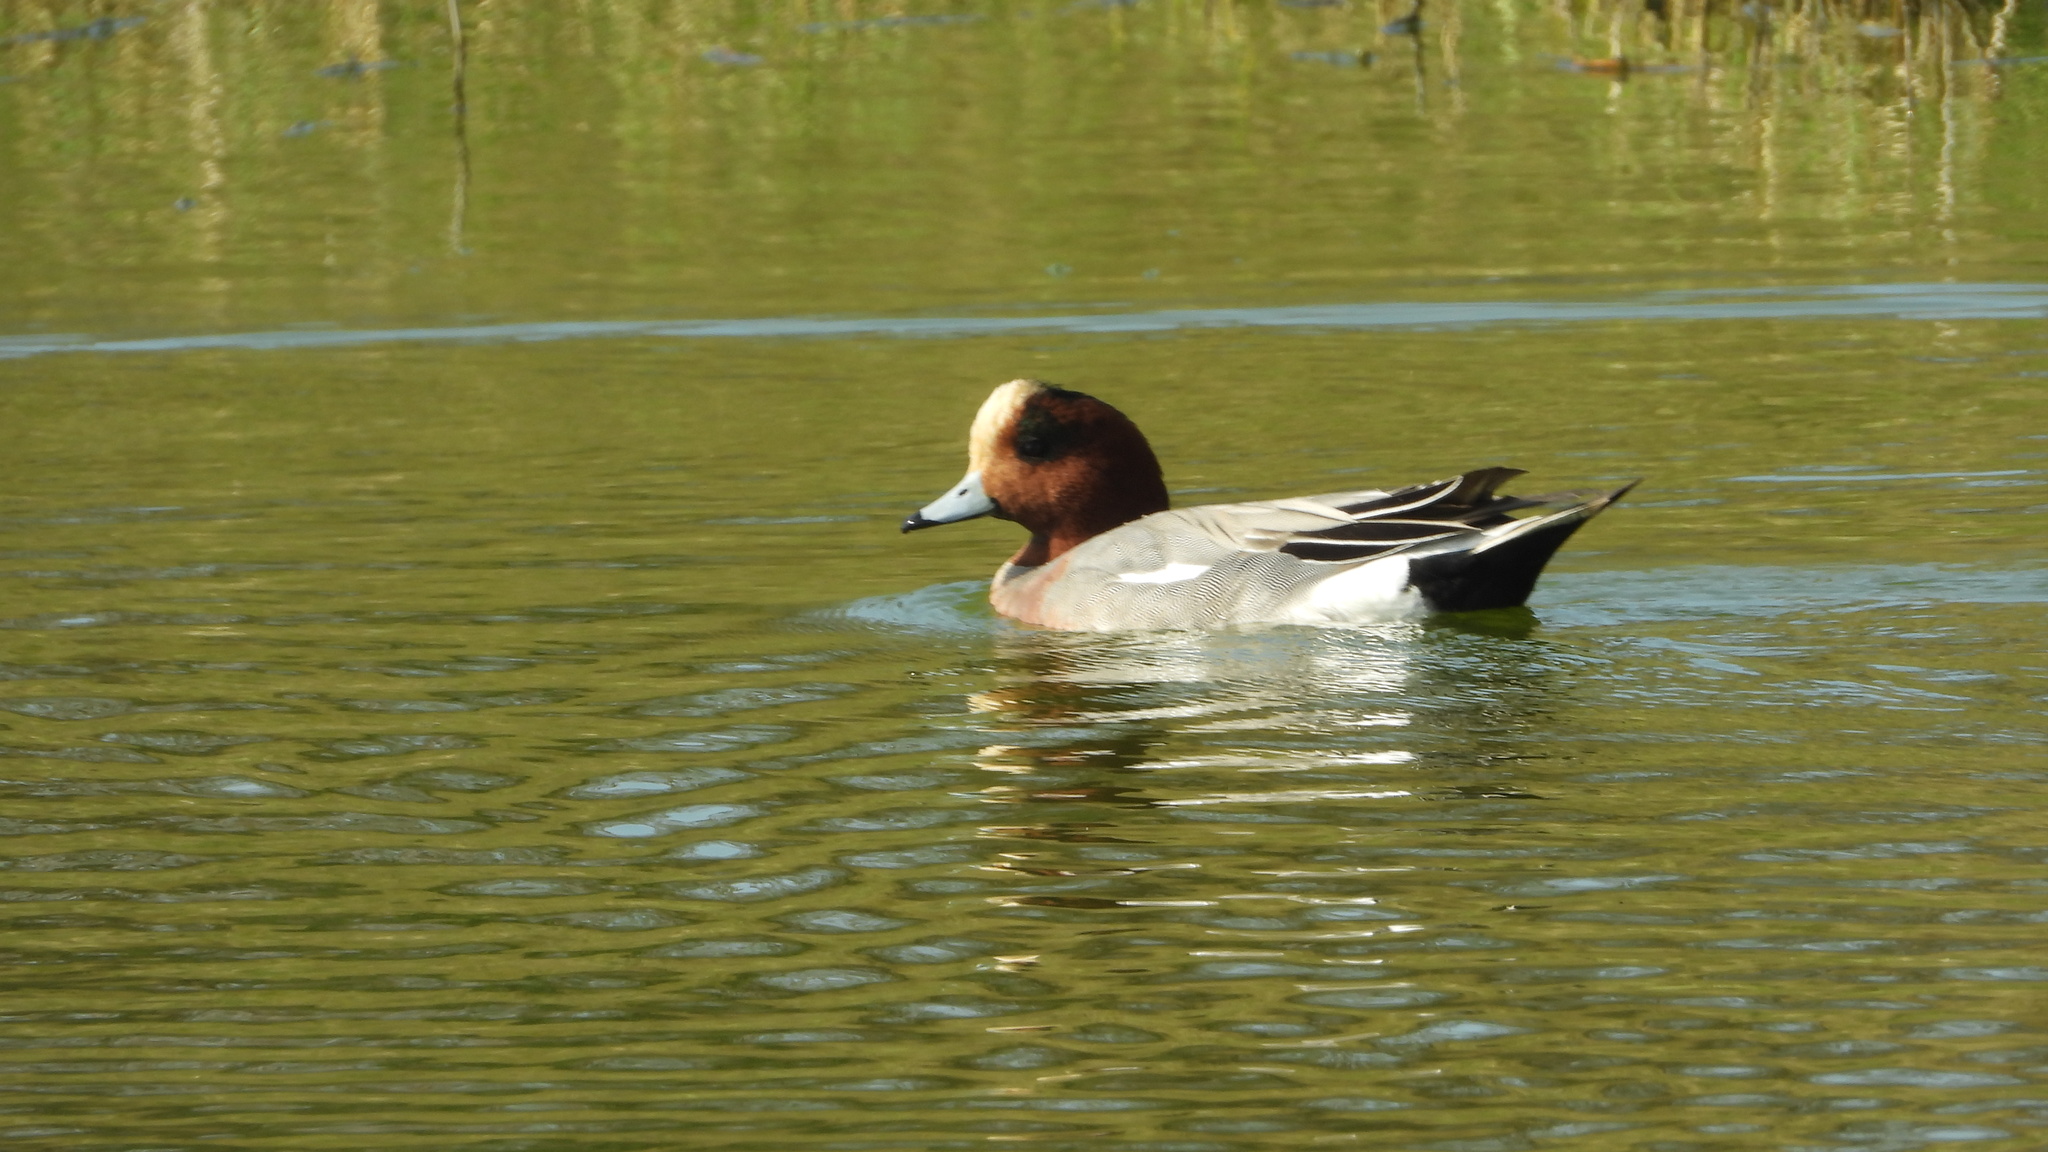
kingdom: Animalia
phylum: Chordata
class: Aves
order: Anseriformes
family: Anatidae
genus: Mareca
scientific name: Mareca penelope
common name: Eurasian wigeon
